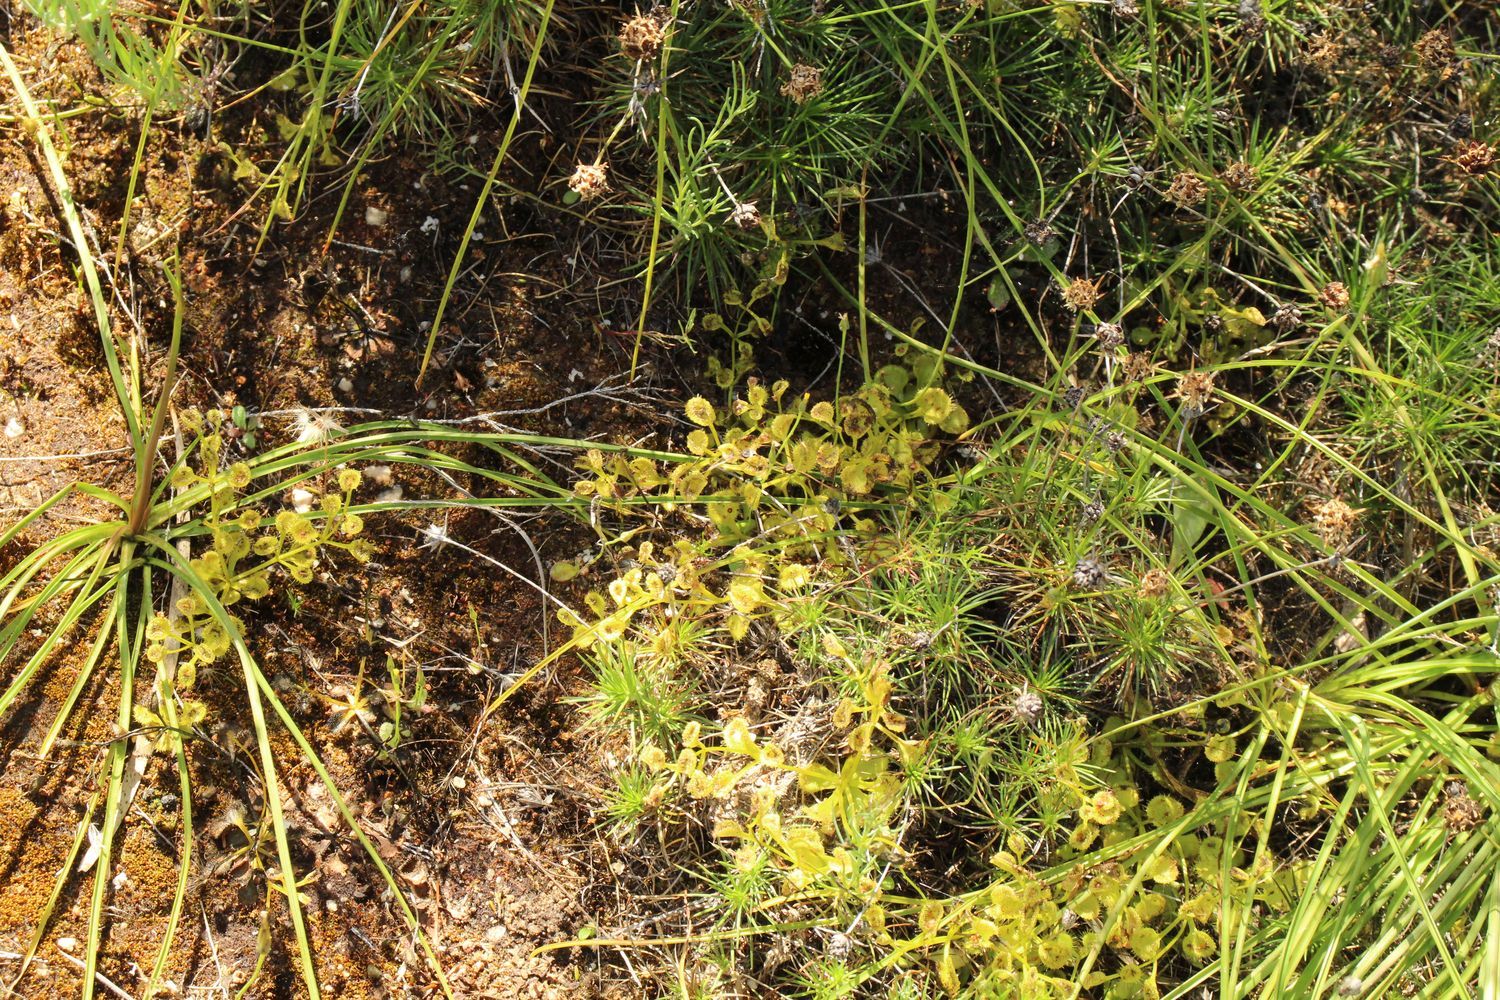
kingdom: Plantae
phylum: Tracheophyta
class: Magnoliopsida
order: Caryophyllales
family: Droseraceae
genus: Drosera
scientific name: Drosera rupicola
